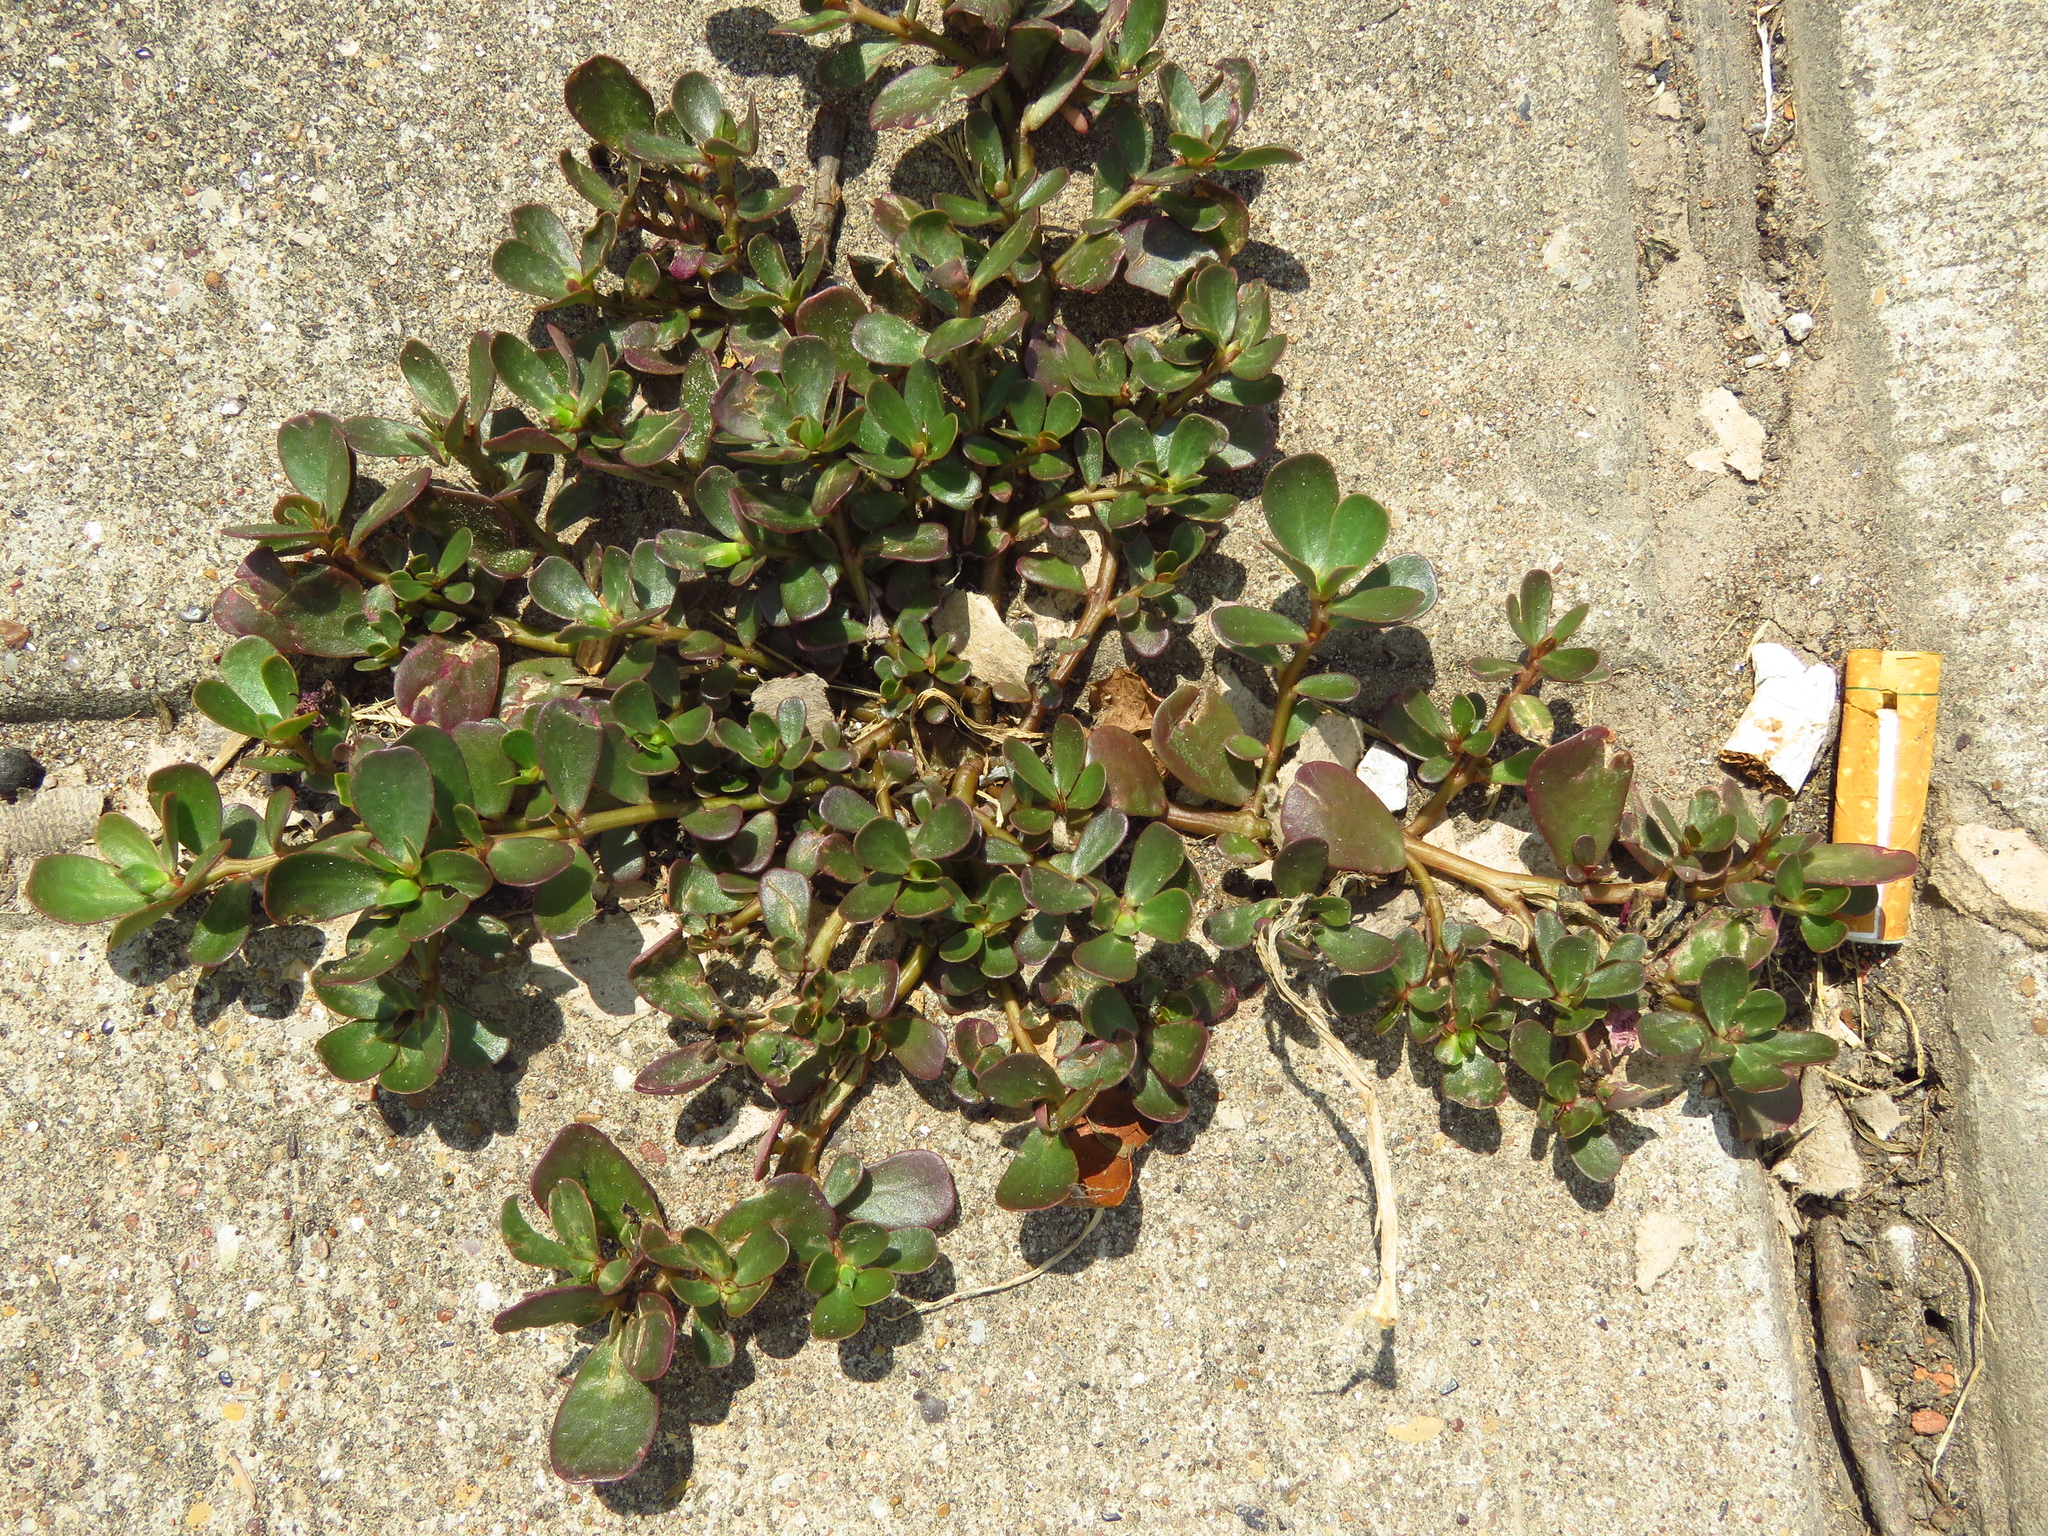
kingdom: Plantae
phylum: Tracheophyta
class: Magnoliopsida
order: Caryophyllales
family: Portulacaceae
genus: Portulaca
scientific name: Portulaca oleracea
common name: Common purslane
